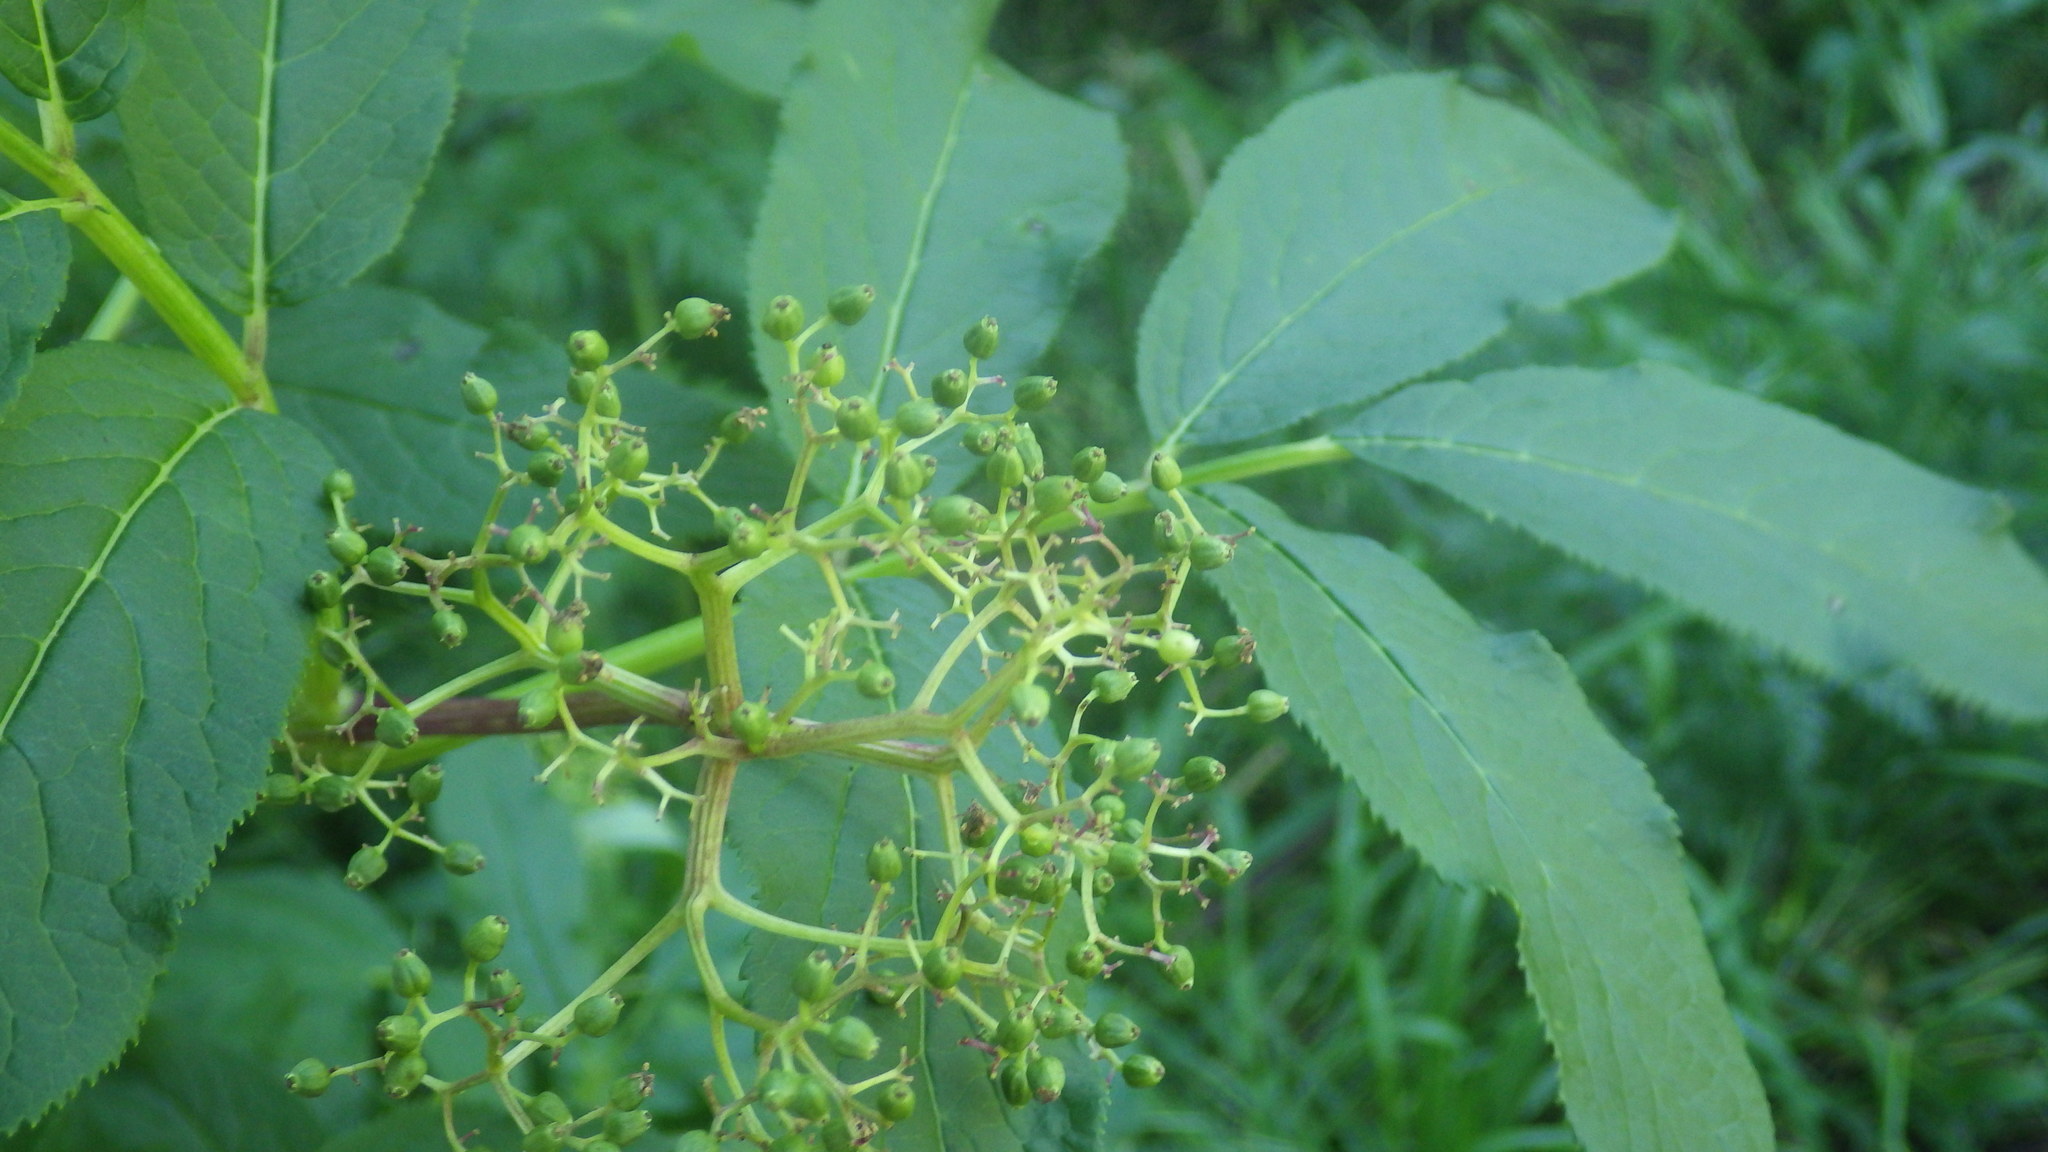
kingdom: Plantae
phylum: Tracheophyta
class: Magnoliopsida
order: Dipsacales
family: Viburnaceae
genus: Sambucus
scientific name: Sambucus racemosa
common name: Red-berried elder
